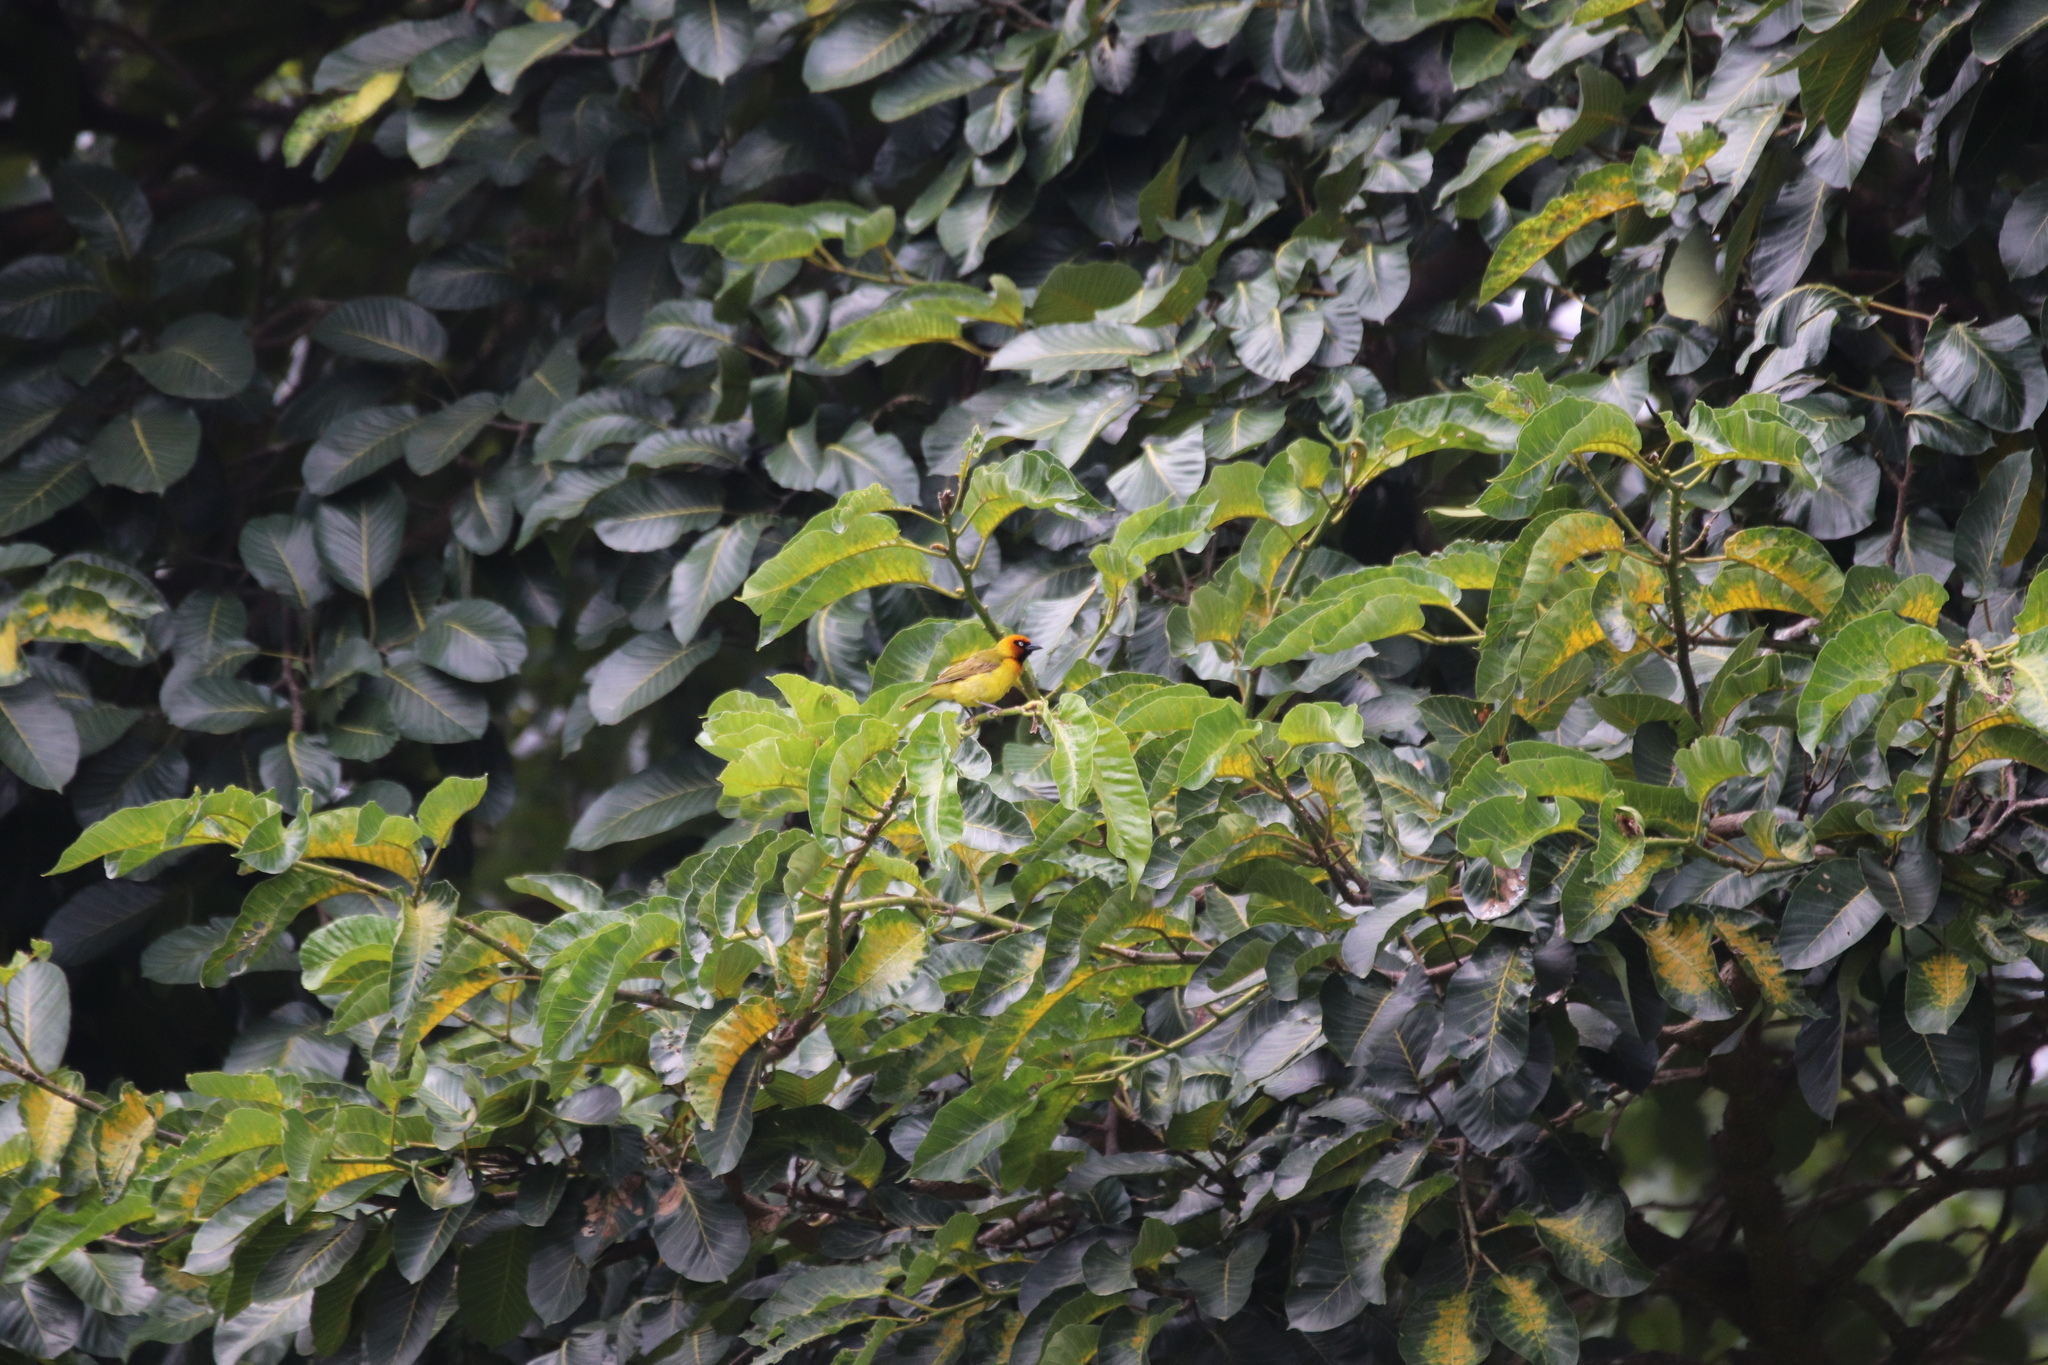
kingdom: Animalia
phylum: Chordata
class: Aves
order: Passeriformes
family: Ploceidae
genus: Ploceus
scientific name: Ploceus brachypterus
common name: Olive-naped weaver
